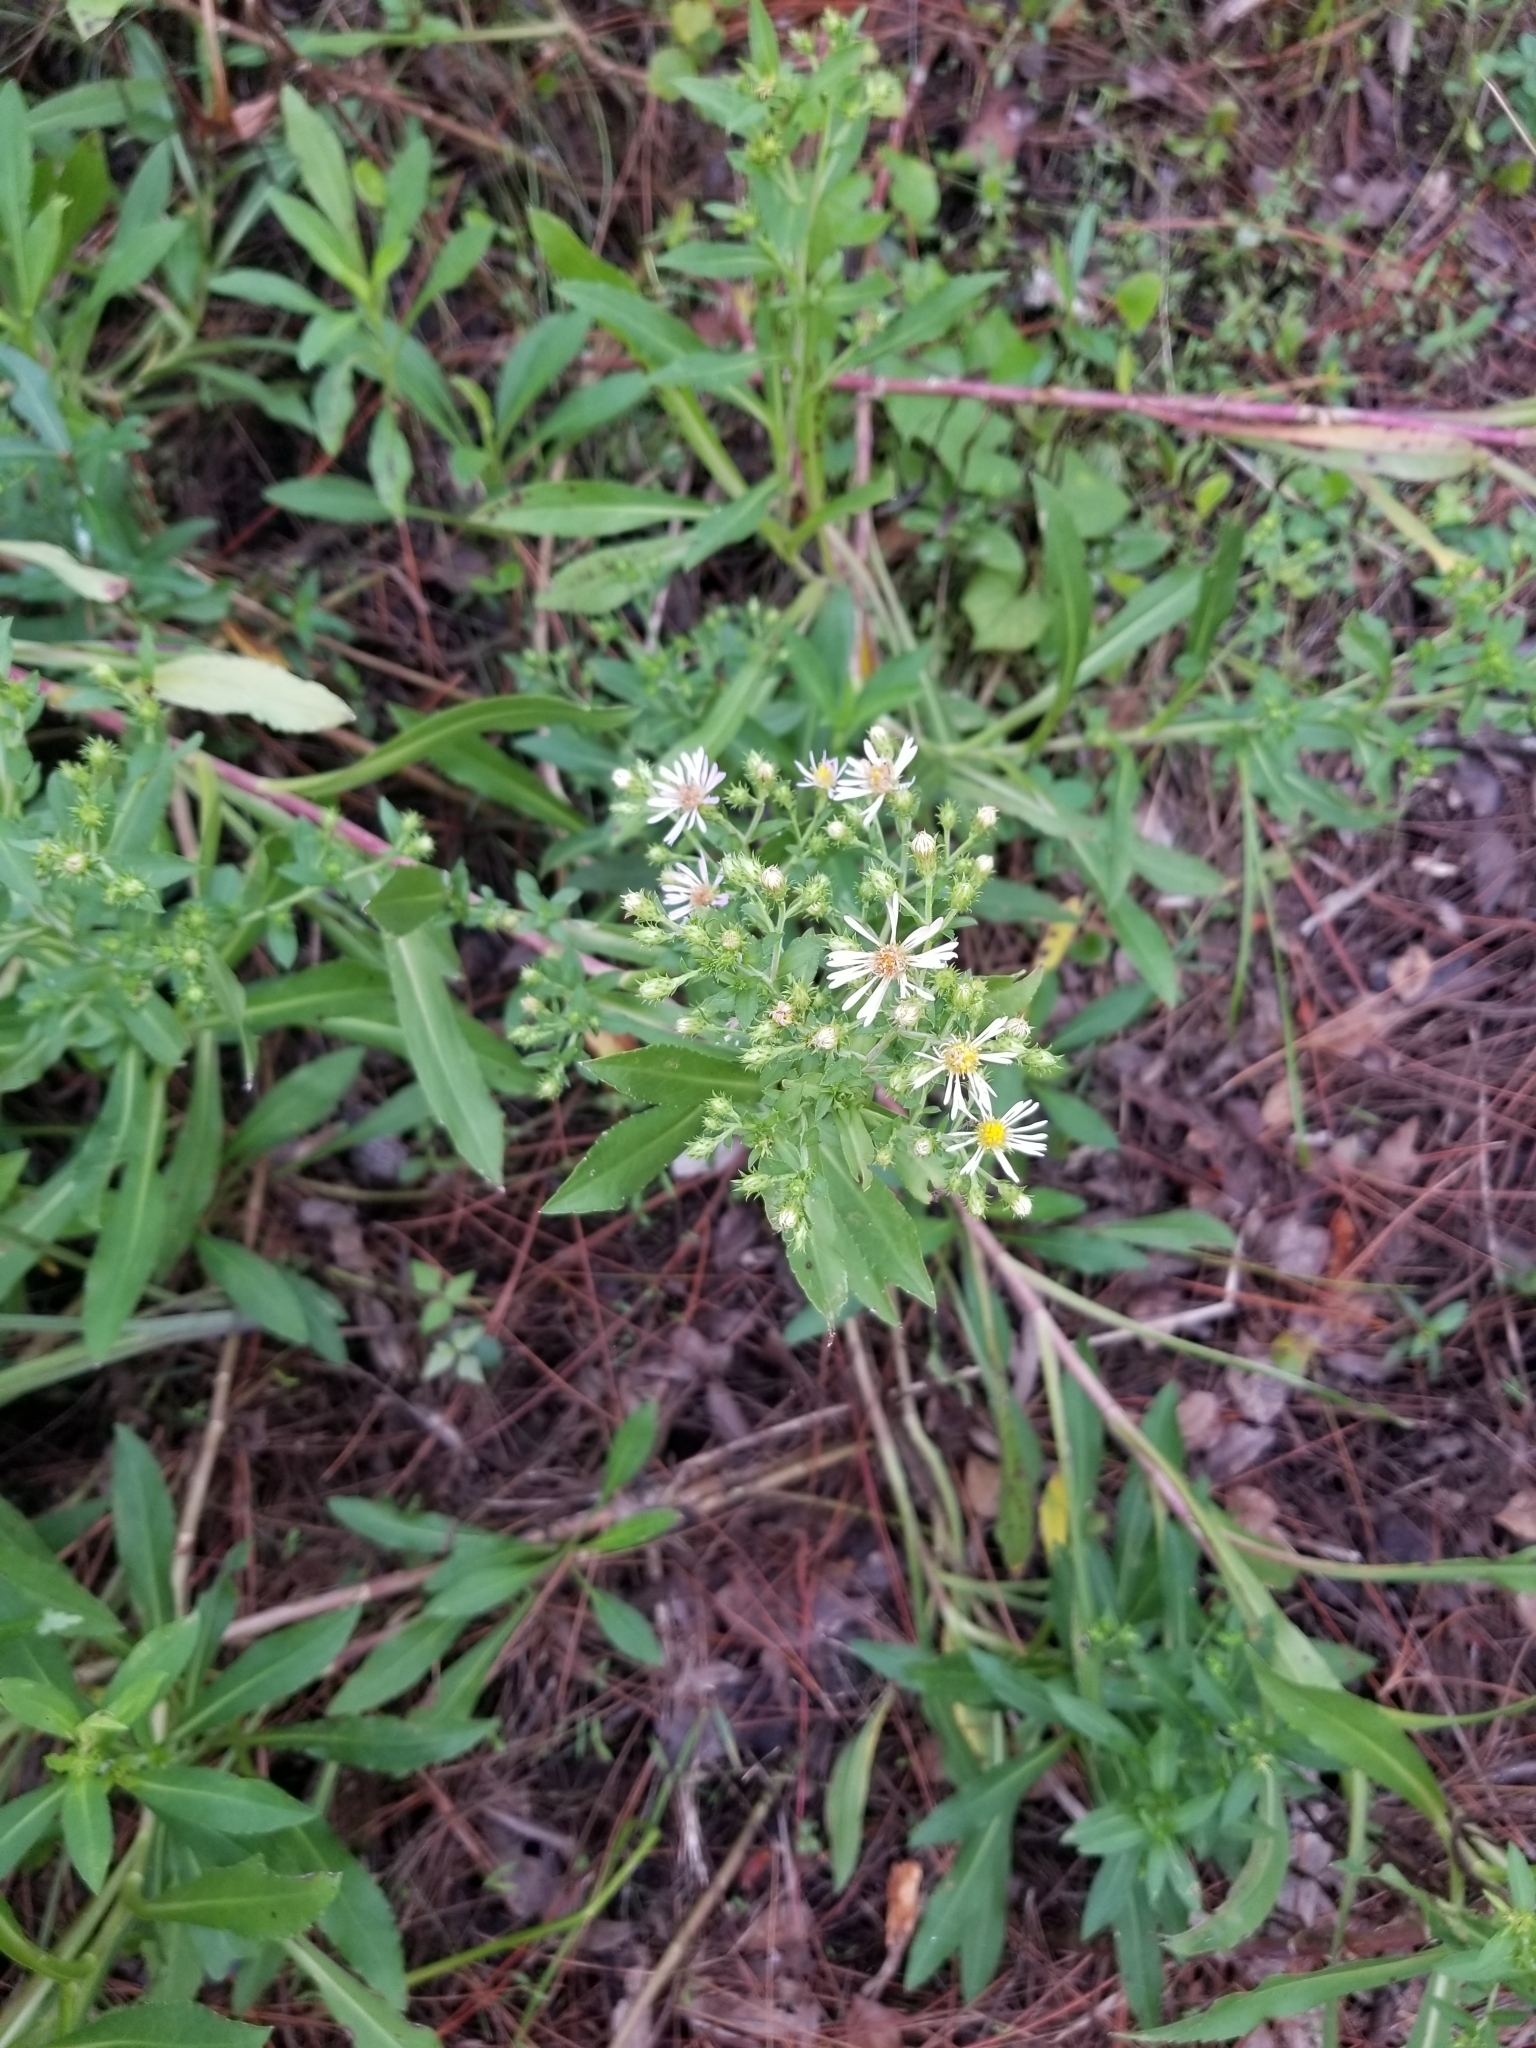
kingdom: Plantae
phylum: Tracheophyta
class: Magnoliopsida
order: Asterales
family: Asteraceae
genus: Symphyotrichum
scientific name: Symphyotrichum elliottii
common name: Southern swamp aster
